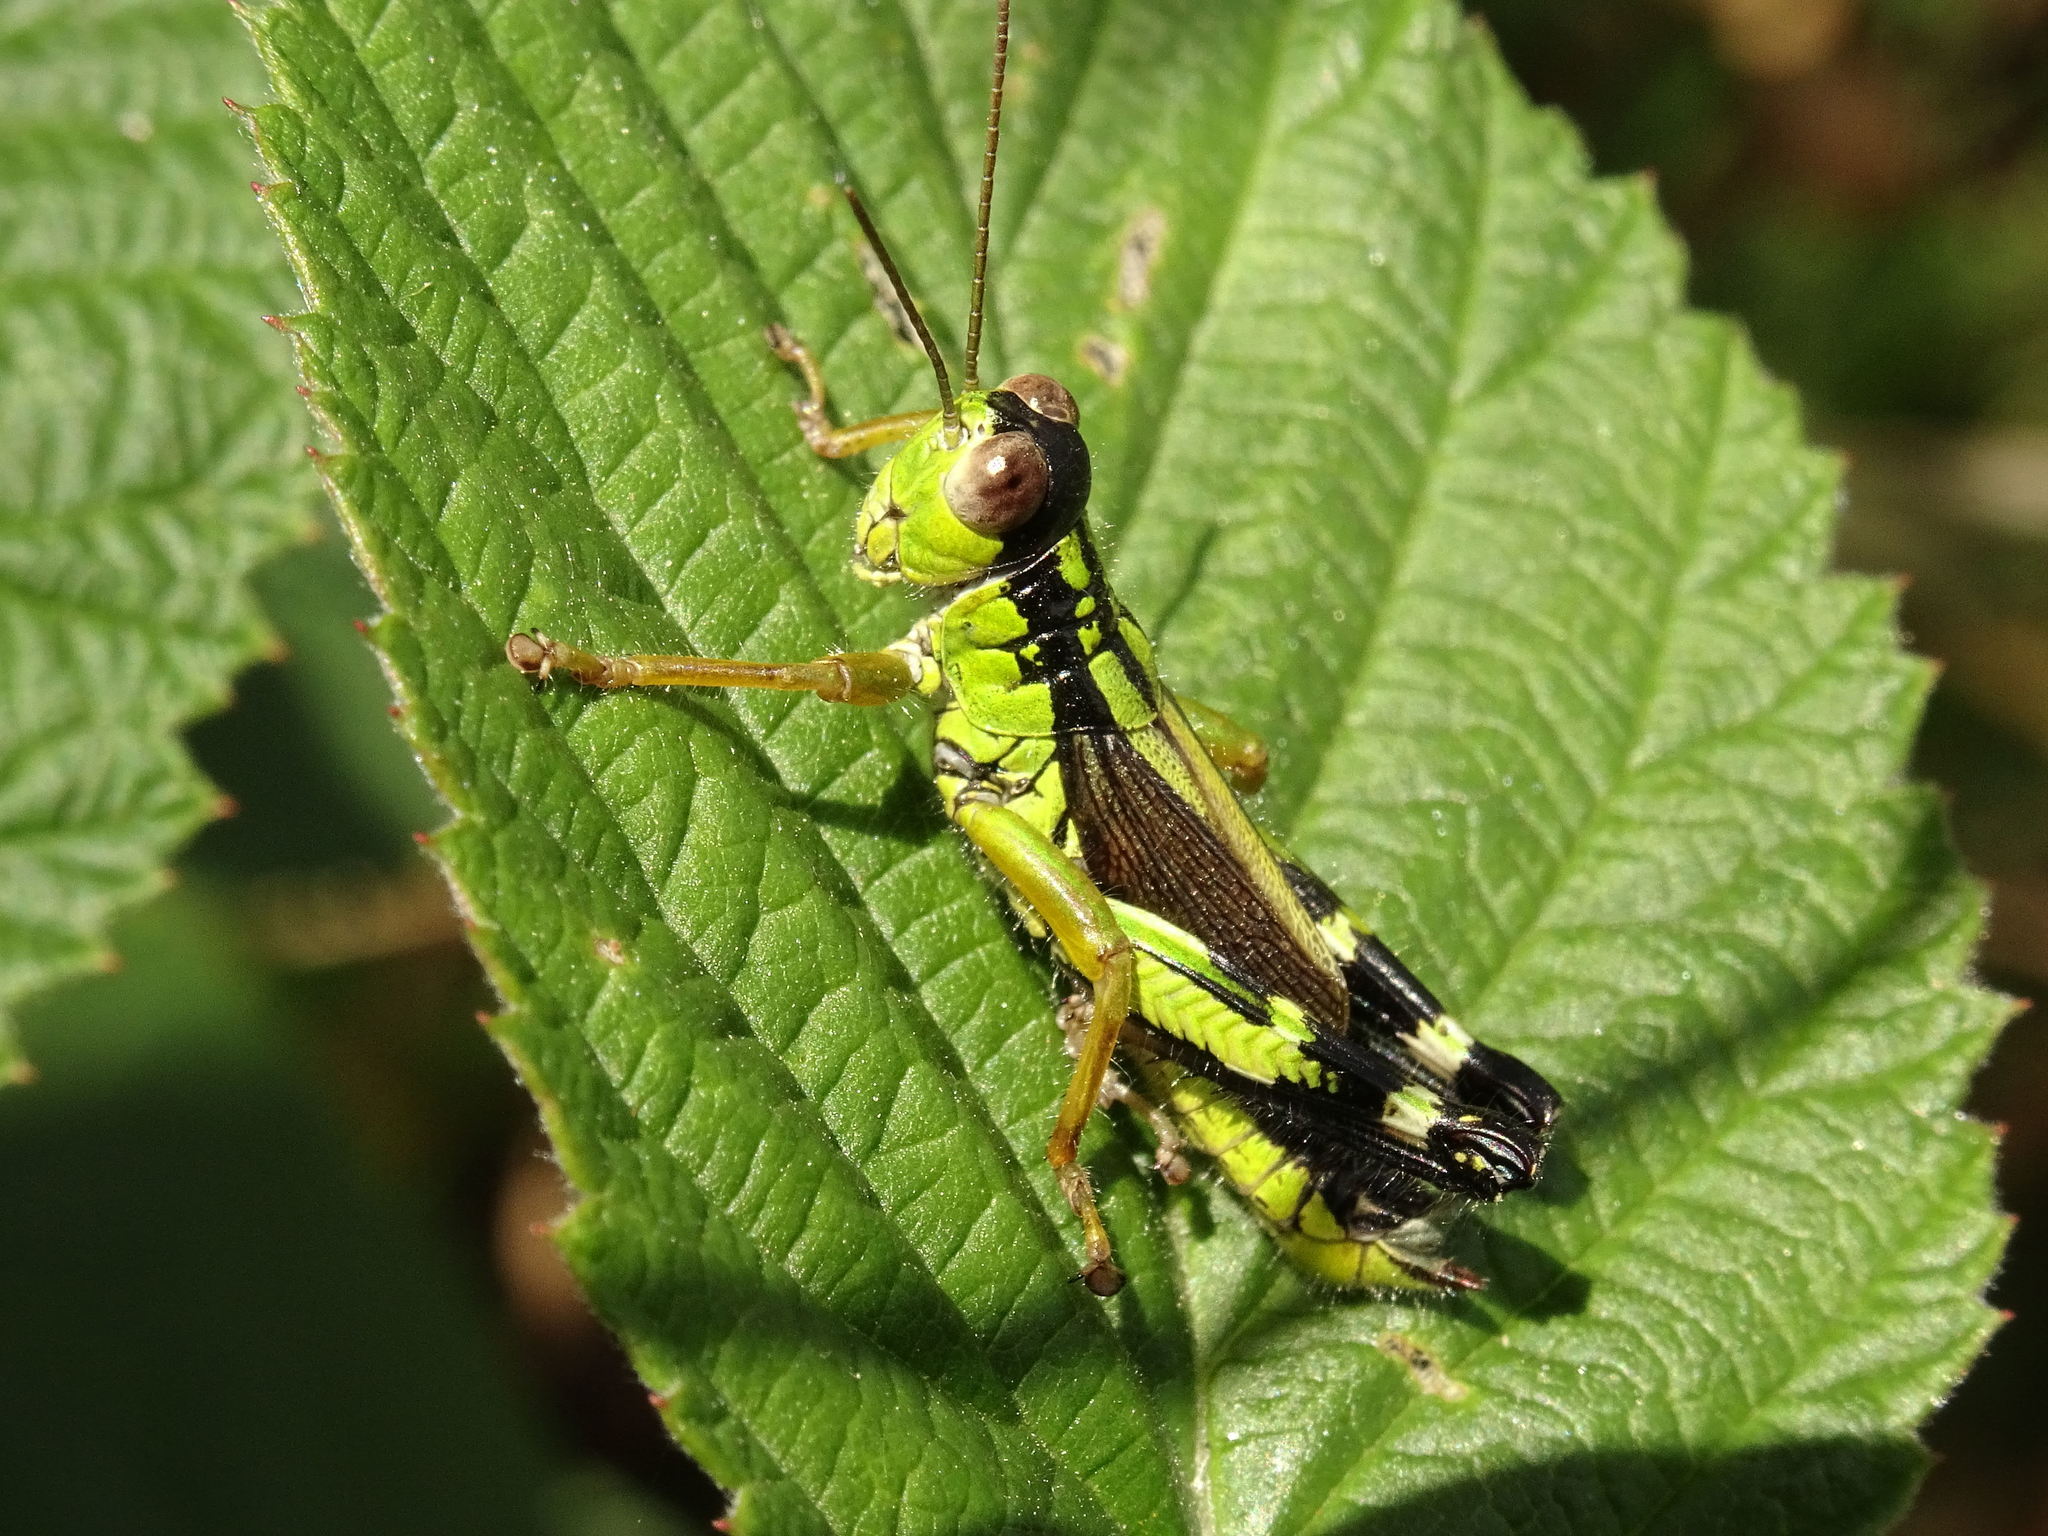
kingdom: Animalia
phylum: Arthropoda
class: Insecta
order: Orthoptera
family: Acrididae
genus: Nadigella
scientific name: Nadigella formosanta
